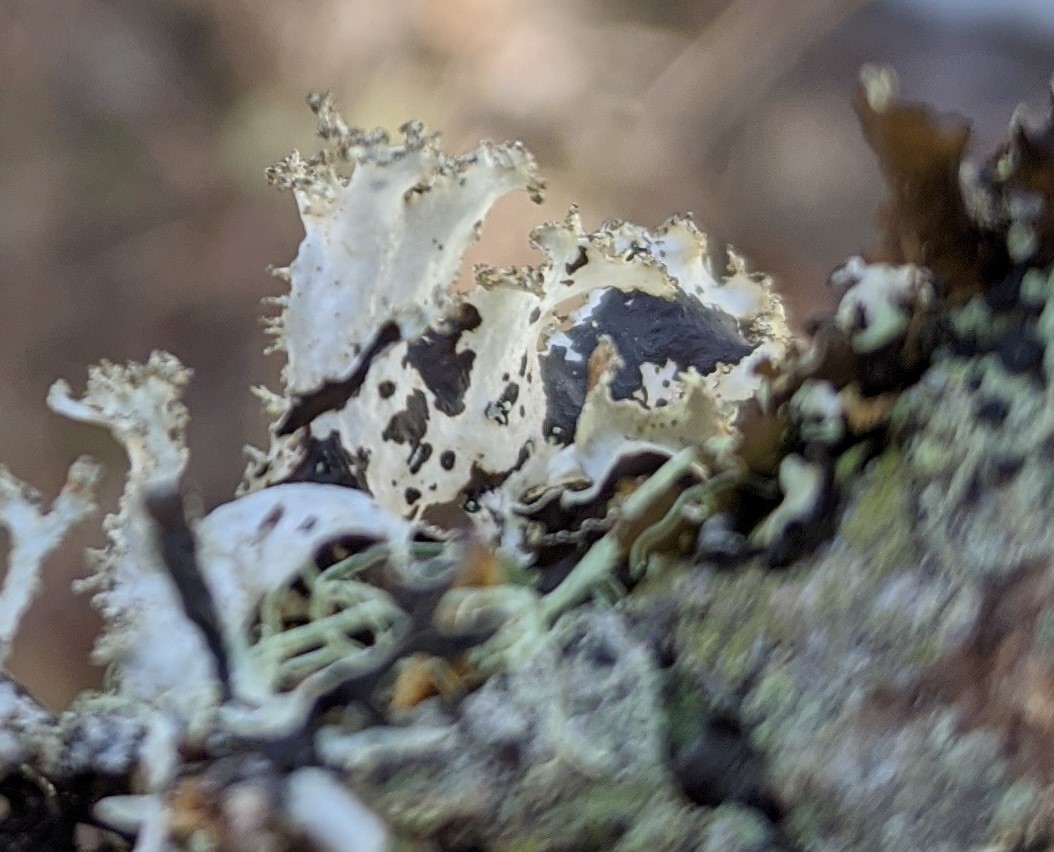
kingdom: Fungi
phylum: Ascomycota
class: Lecanoromycetes
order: Lecanorales
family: Parmeliaceae
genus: Platismatia
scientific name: Platismatia glauca
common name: Varied rag lichen
